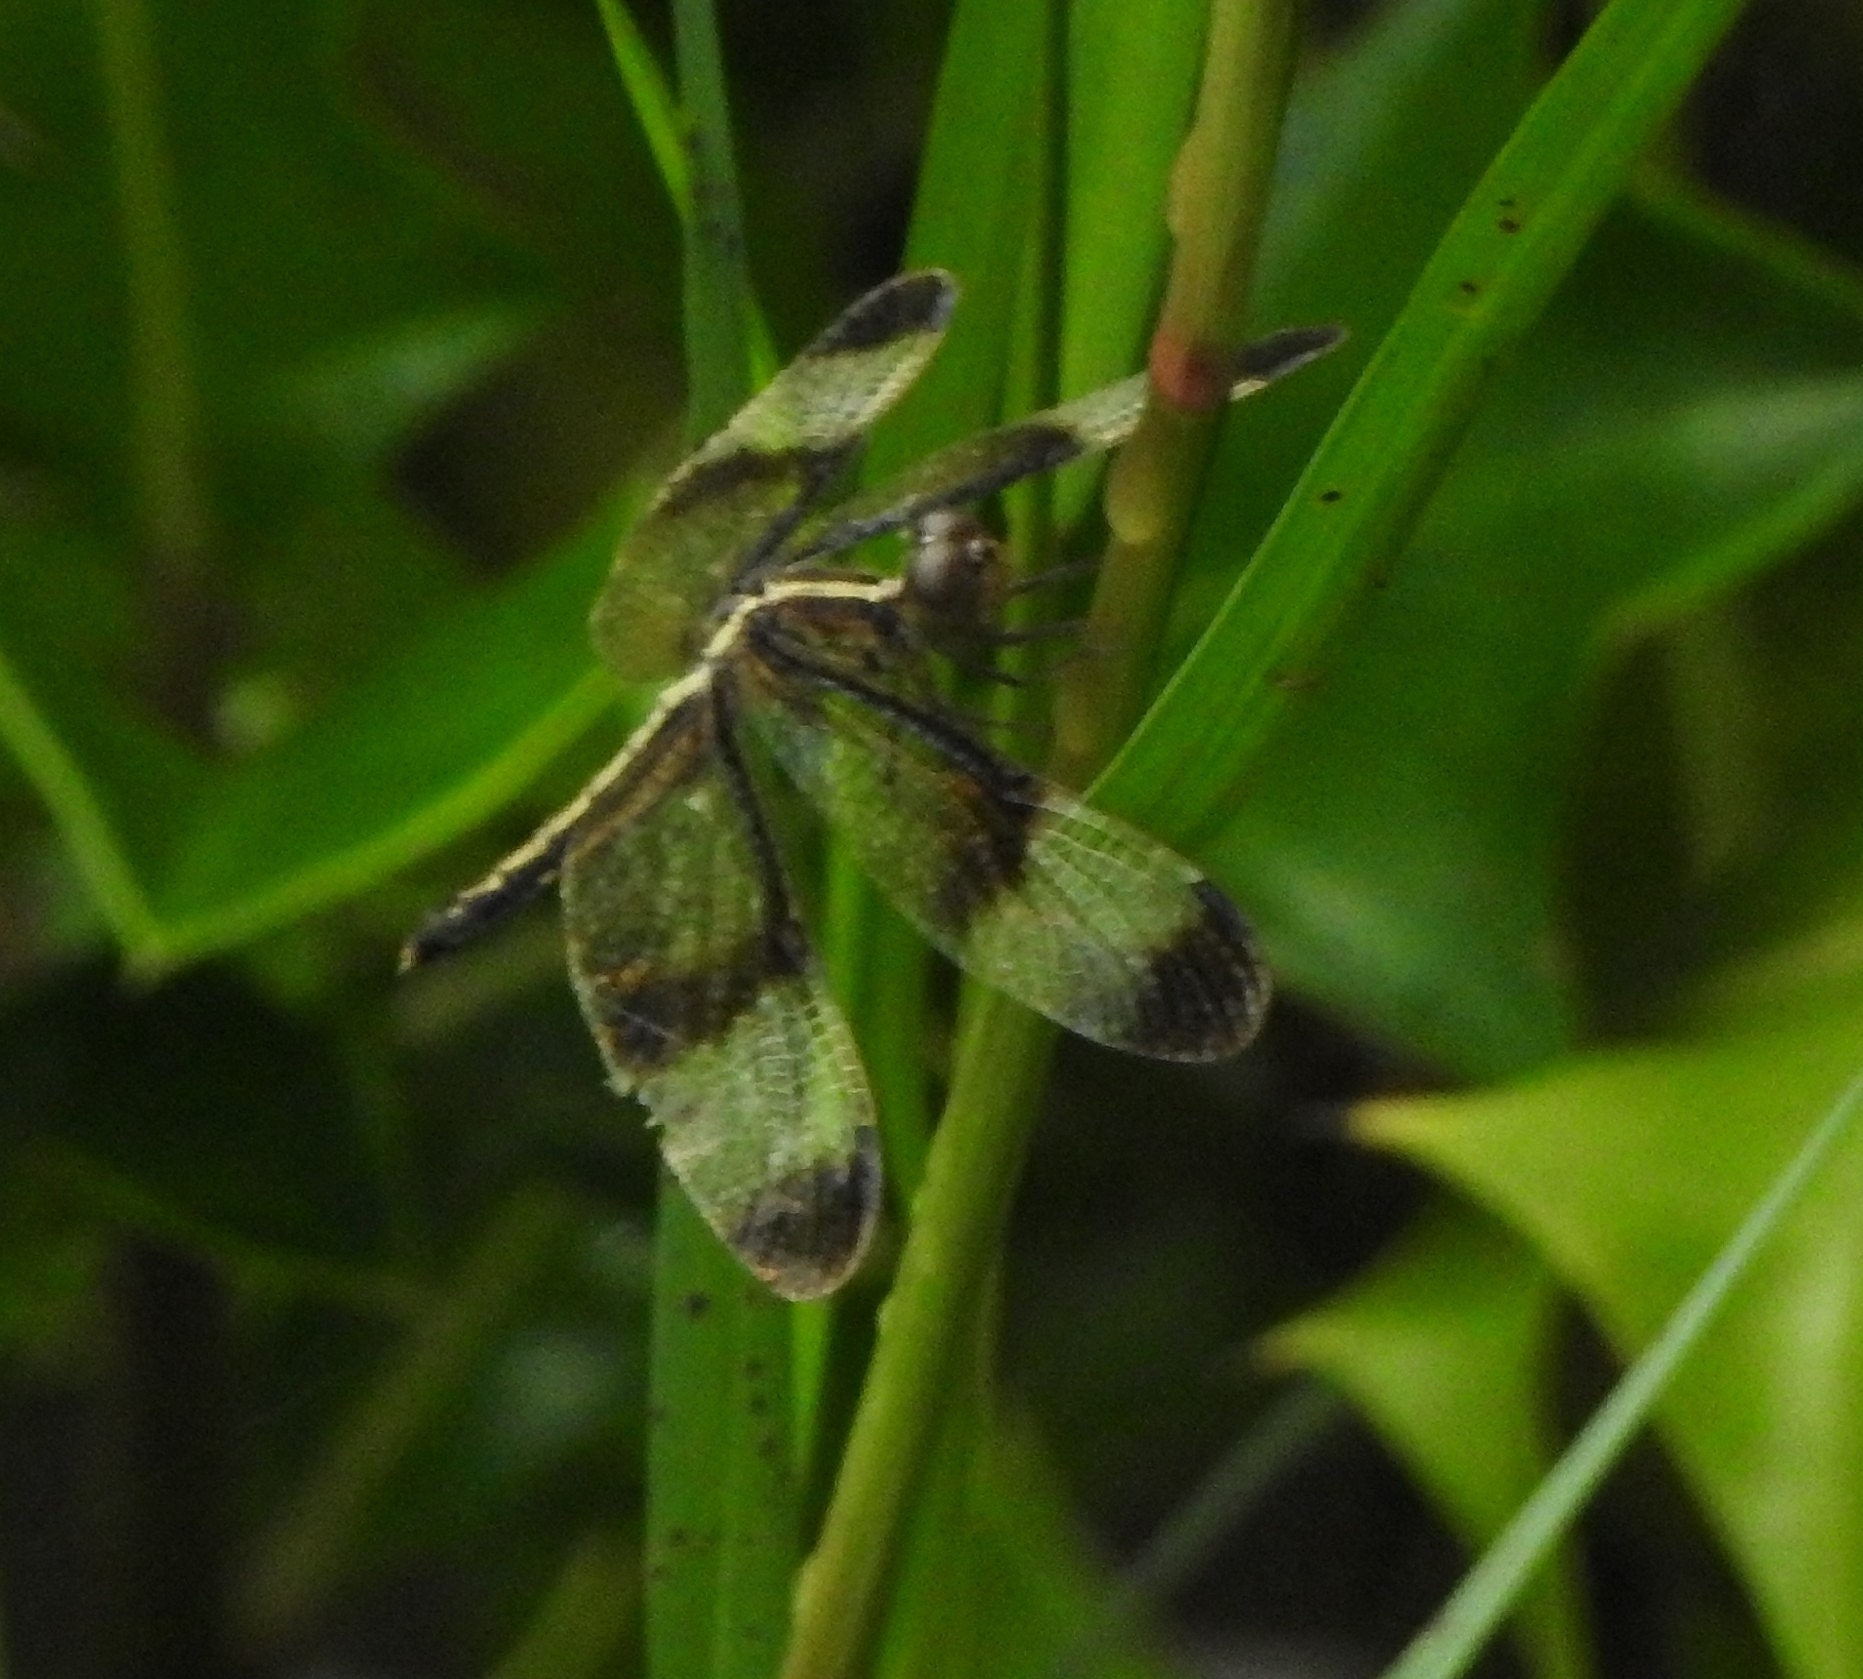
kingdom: Animalia
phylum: Arthropoda
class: Insecta
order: Odonata
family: Libellulidae
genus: Neurothemis
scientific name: Neurothemis tullia
